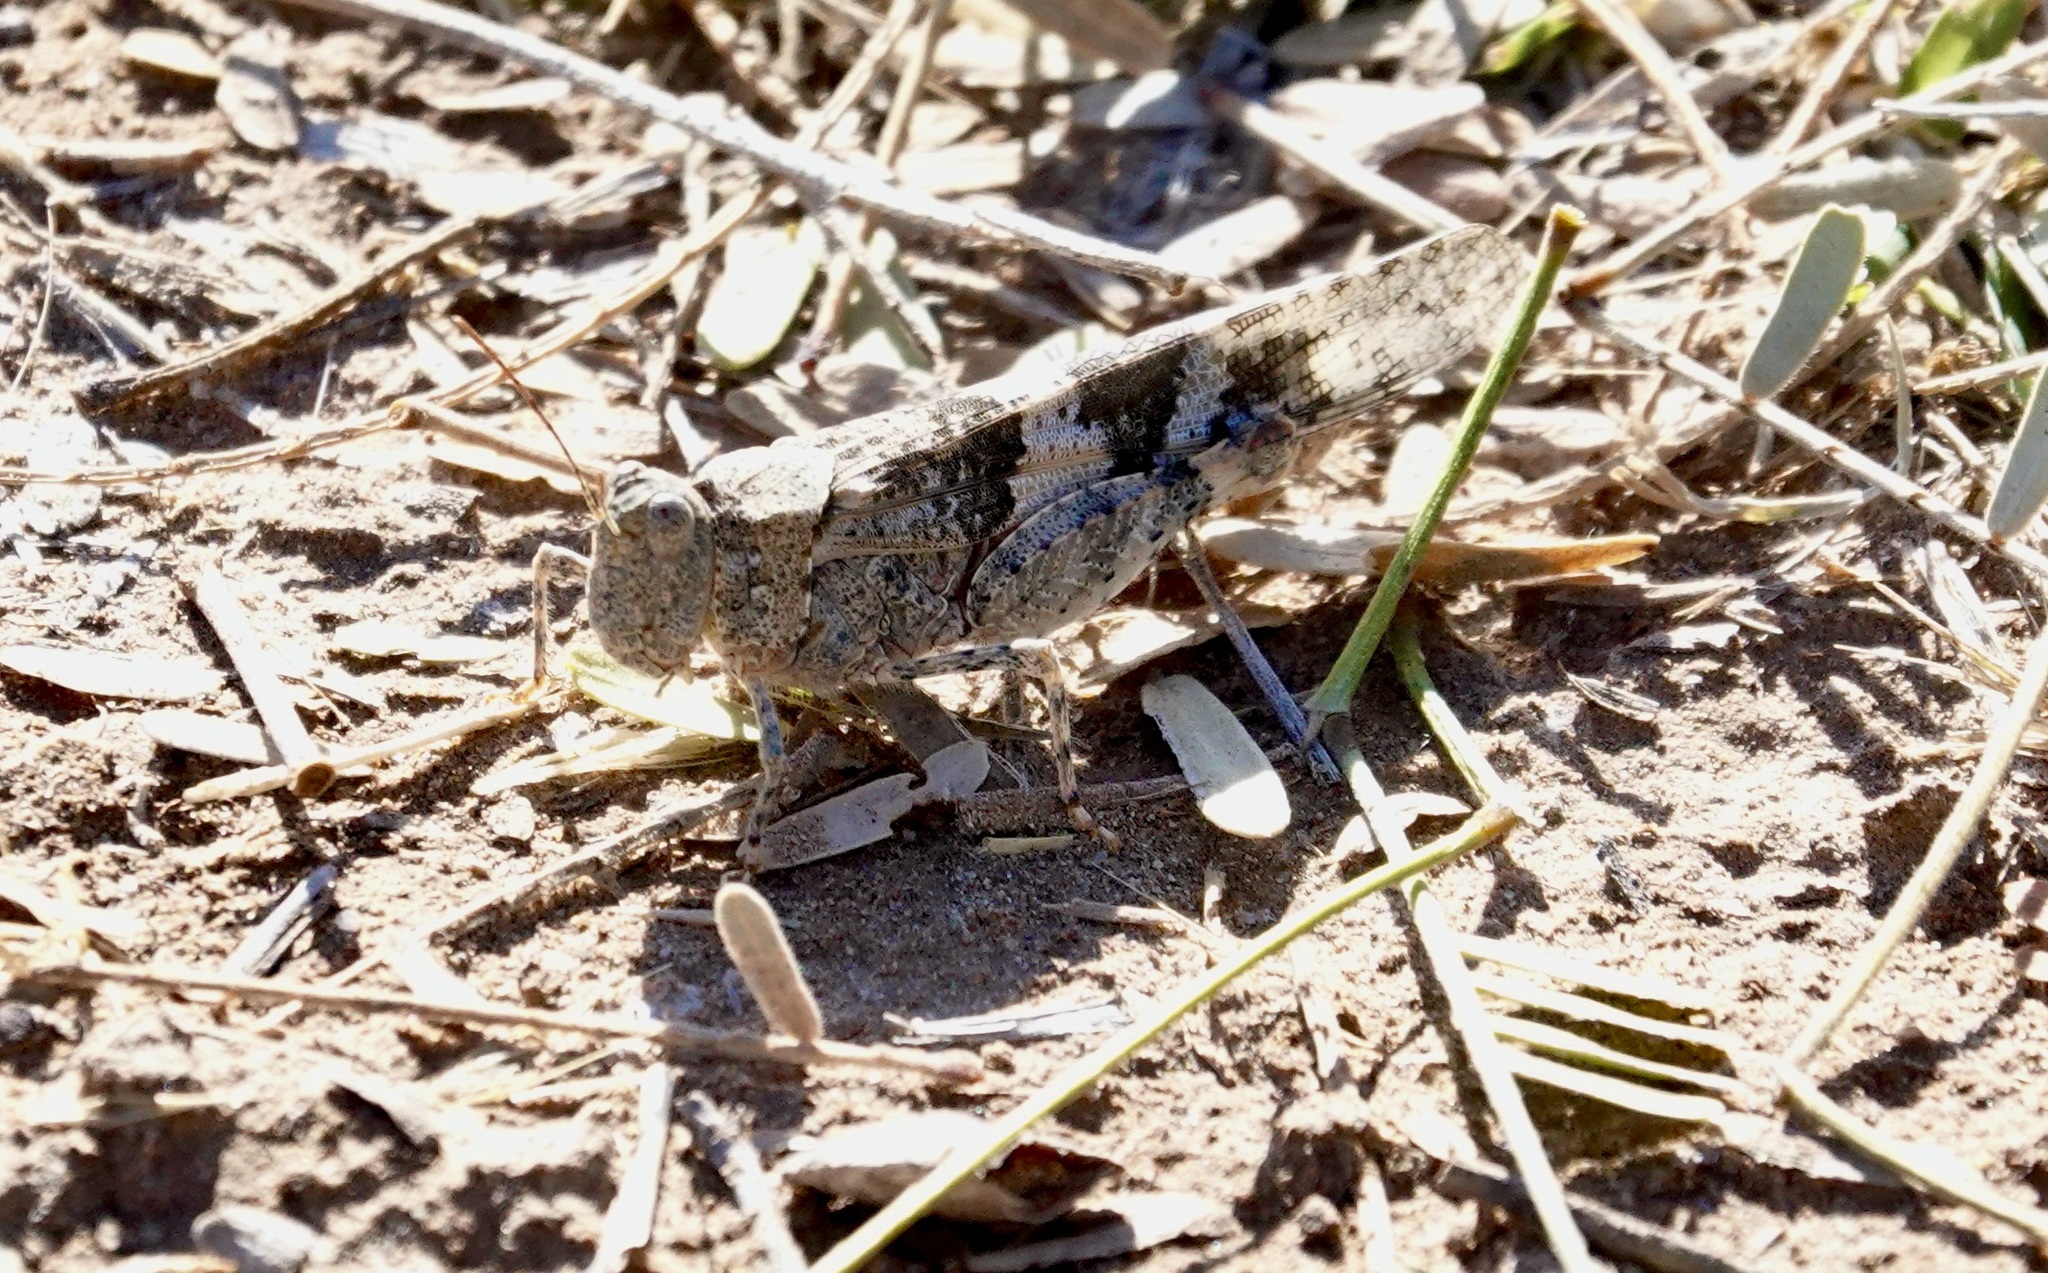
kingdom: Animalia
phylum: Arthropoda
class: Insecta
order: Orthoptera
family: Acrididae
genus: Trimerotropis
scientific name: Trimerotropis pallidipennis
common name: Pallid-winged grasshopper
